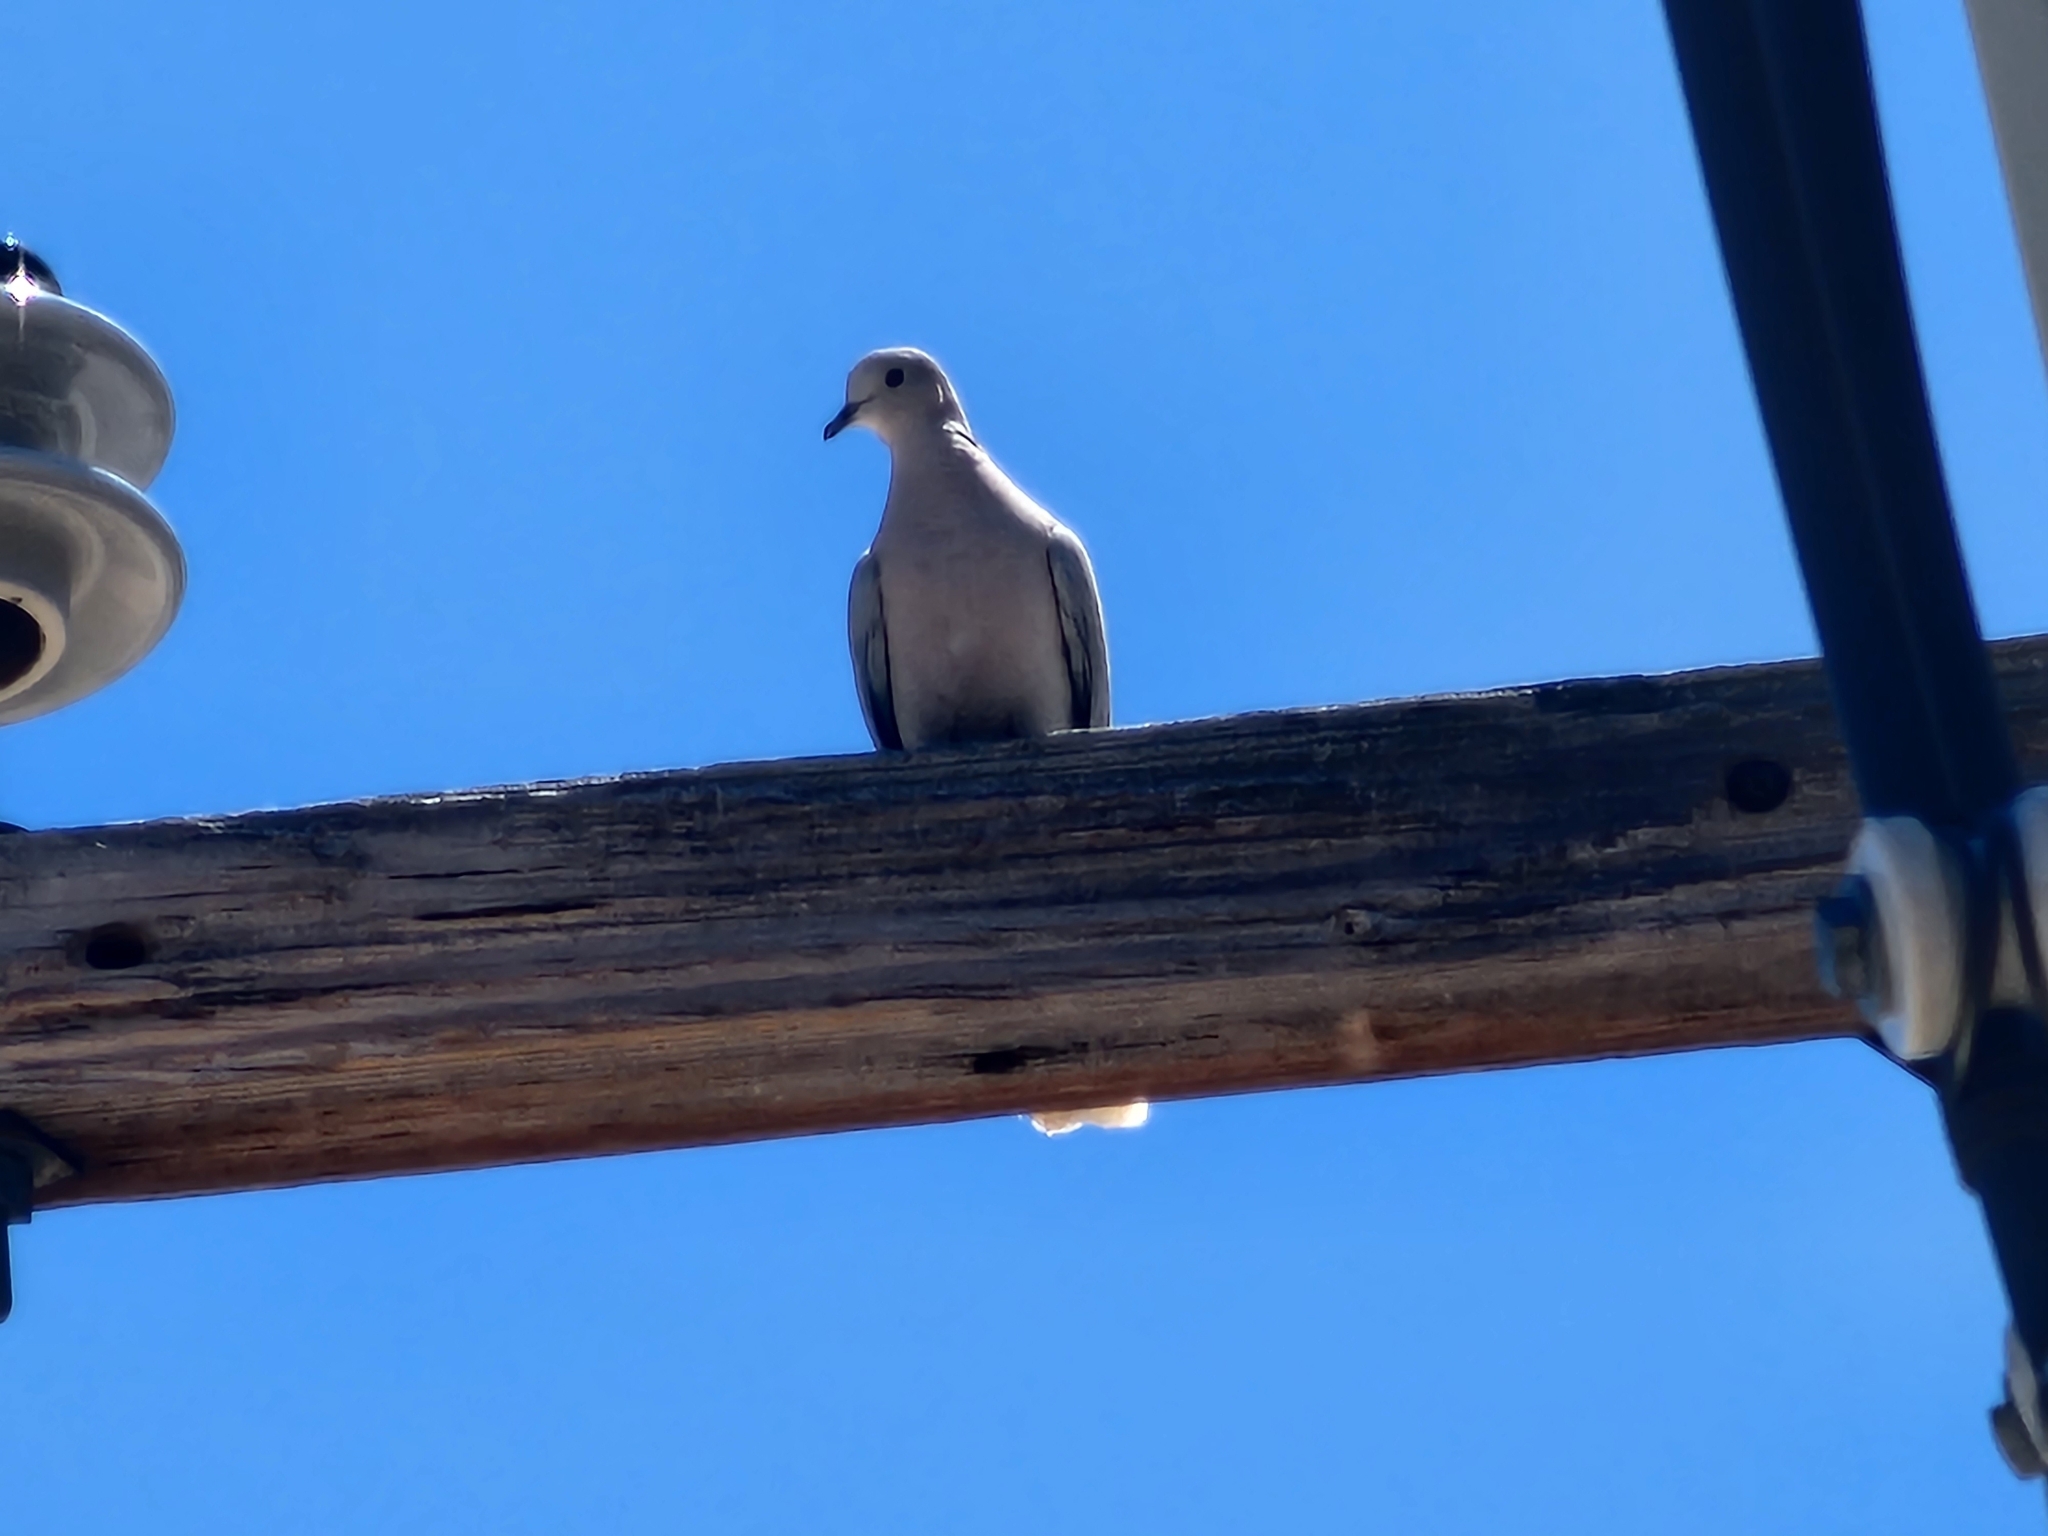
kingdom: Animalia
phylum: Chordata
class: Aves
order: Columbiformes
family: Columbidae
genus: Streptopelia
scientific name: Streptopelia decaocto
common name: Eurasian collared dove
